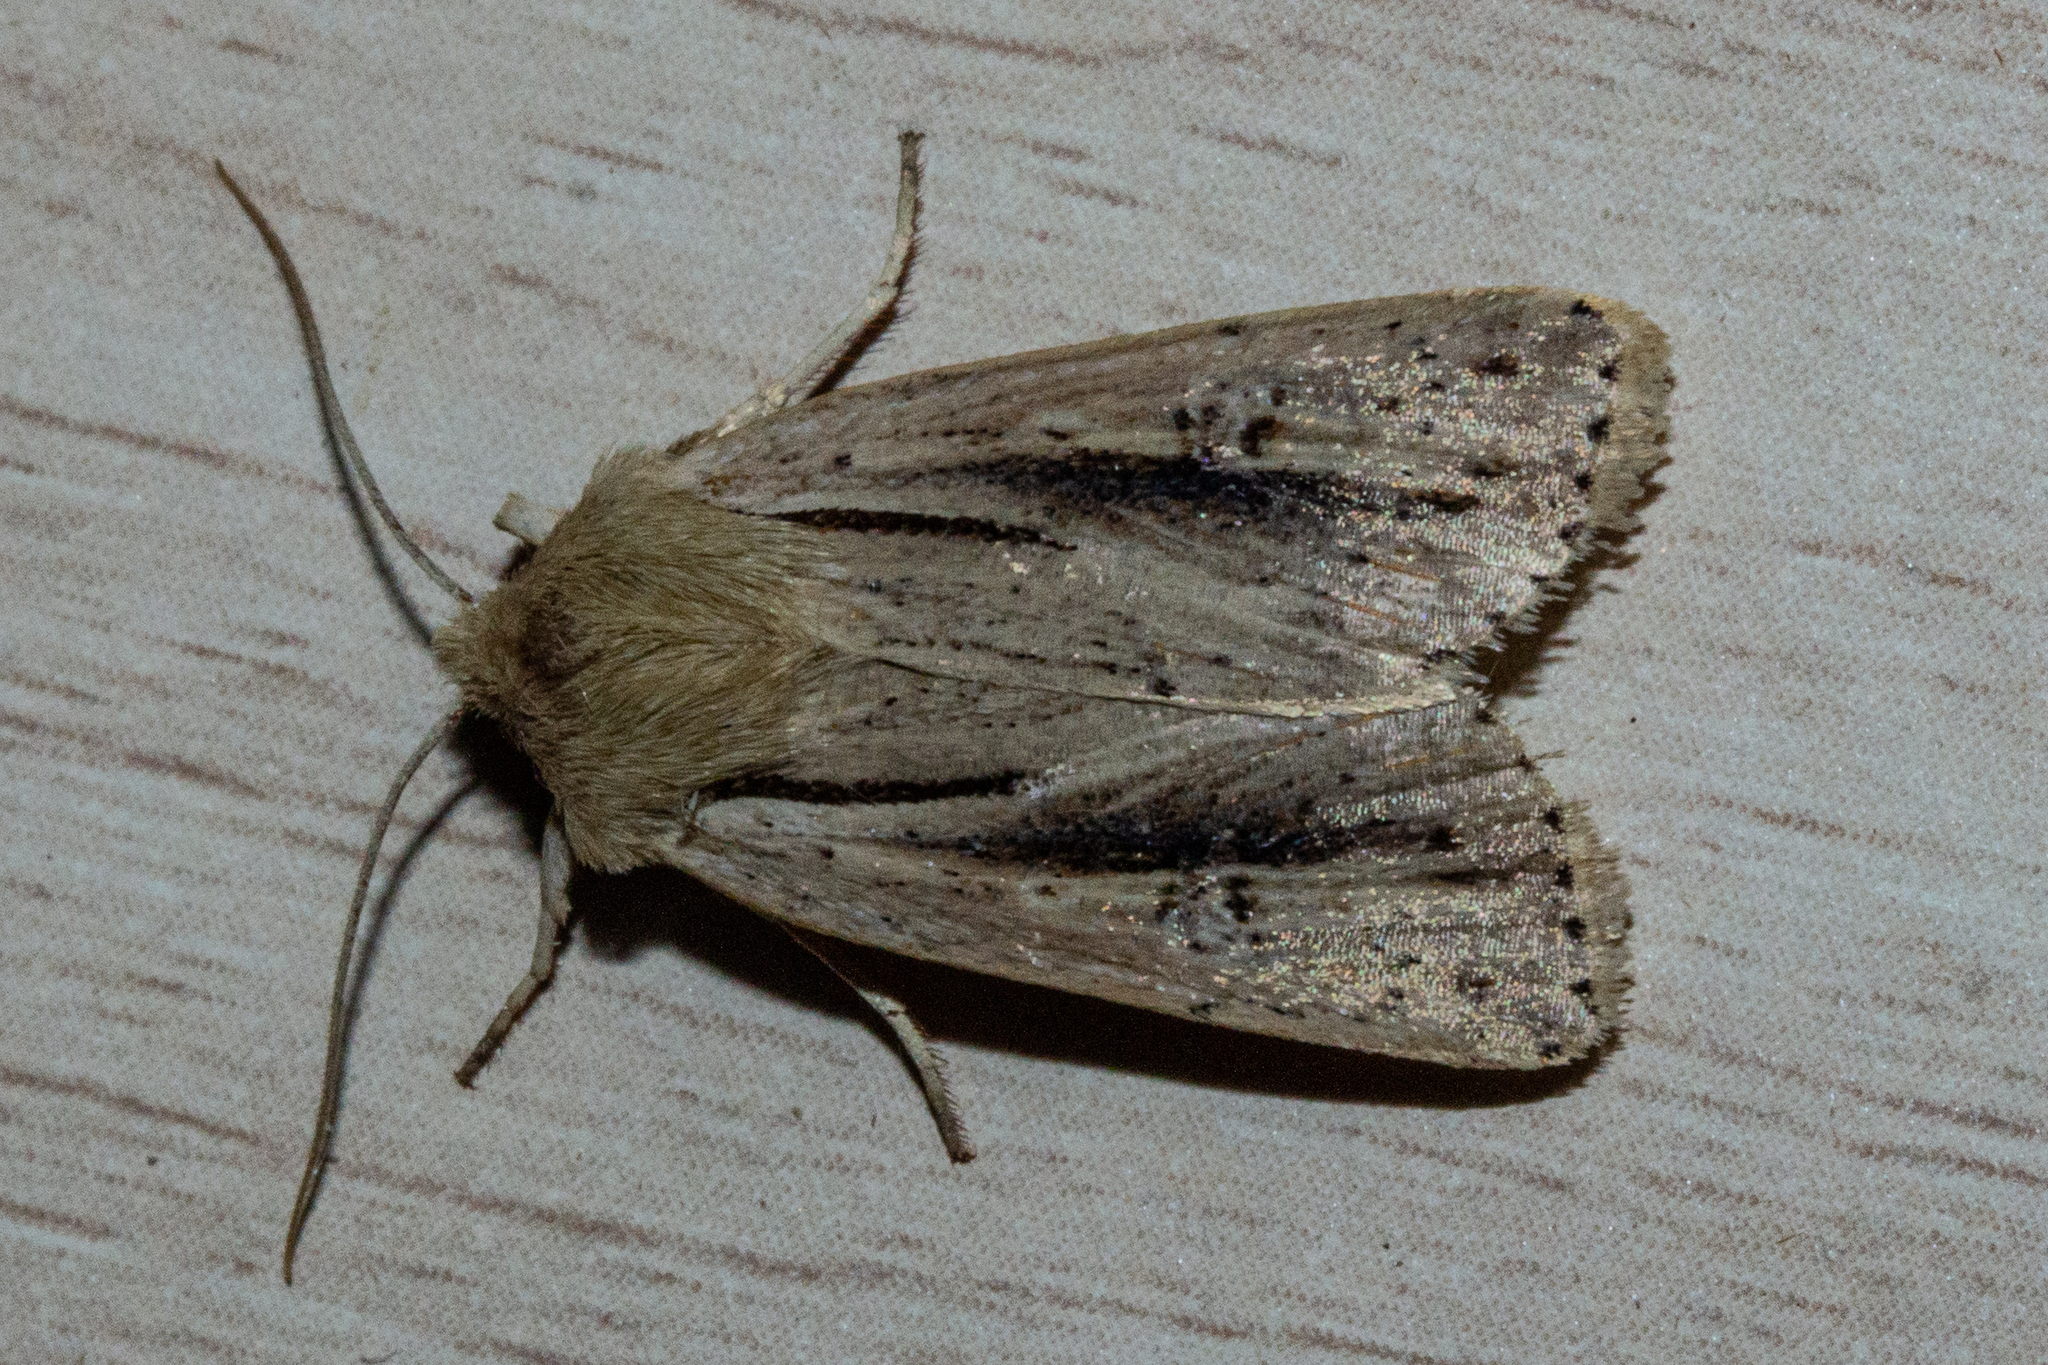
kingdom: Animalia
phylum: Arthropoda
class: Insecta
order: Lepidoptera
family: Noctuidae
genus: Ichneutica
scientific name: Ichneutica propria
